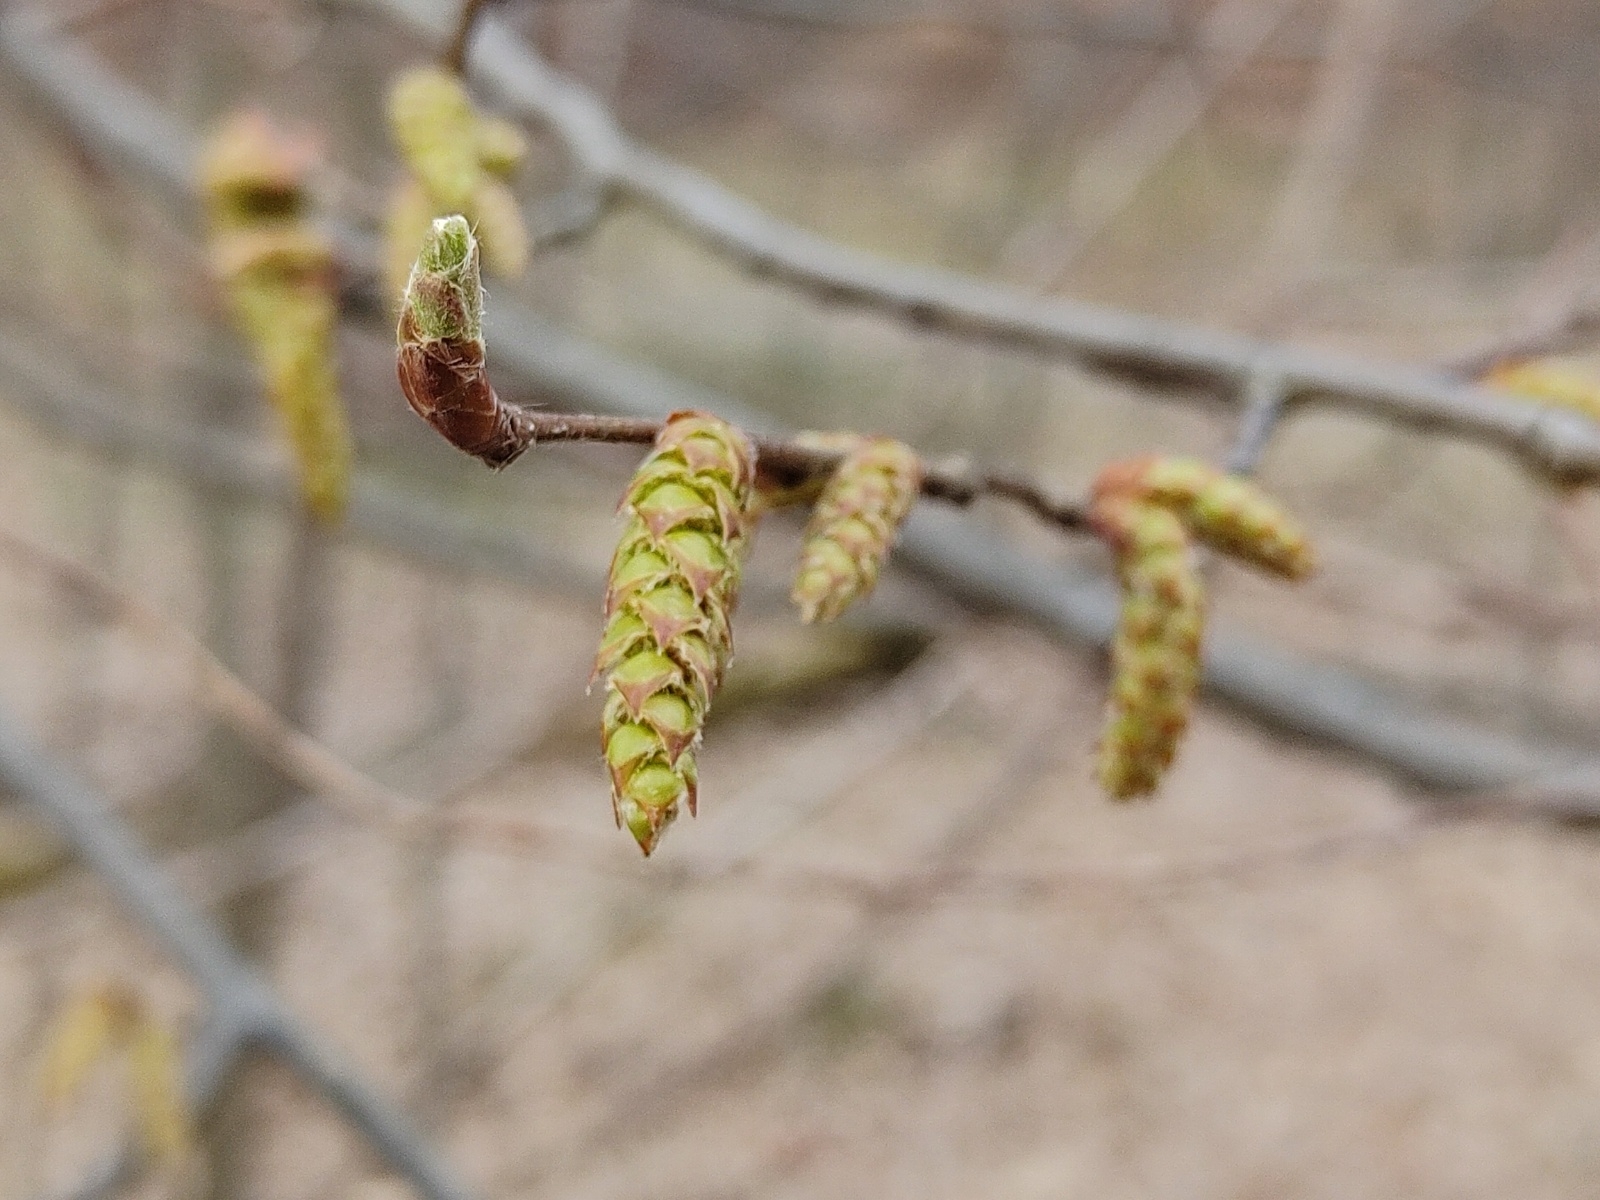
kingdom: Plantae
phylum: Tracheophyta
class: Magnoliopsida
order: Fagales
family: Betulaceae
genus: Carpinus
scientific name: Carpinus betulus
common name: Hornbeam
